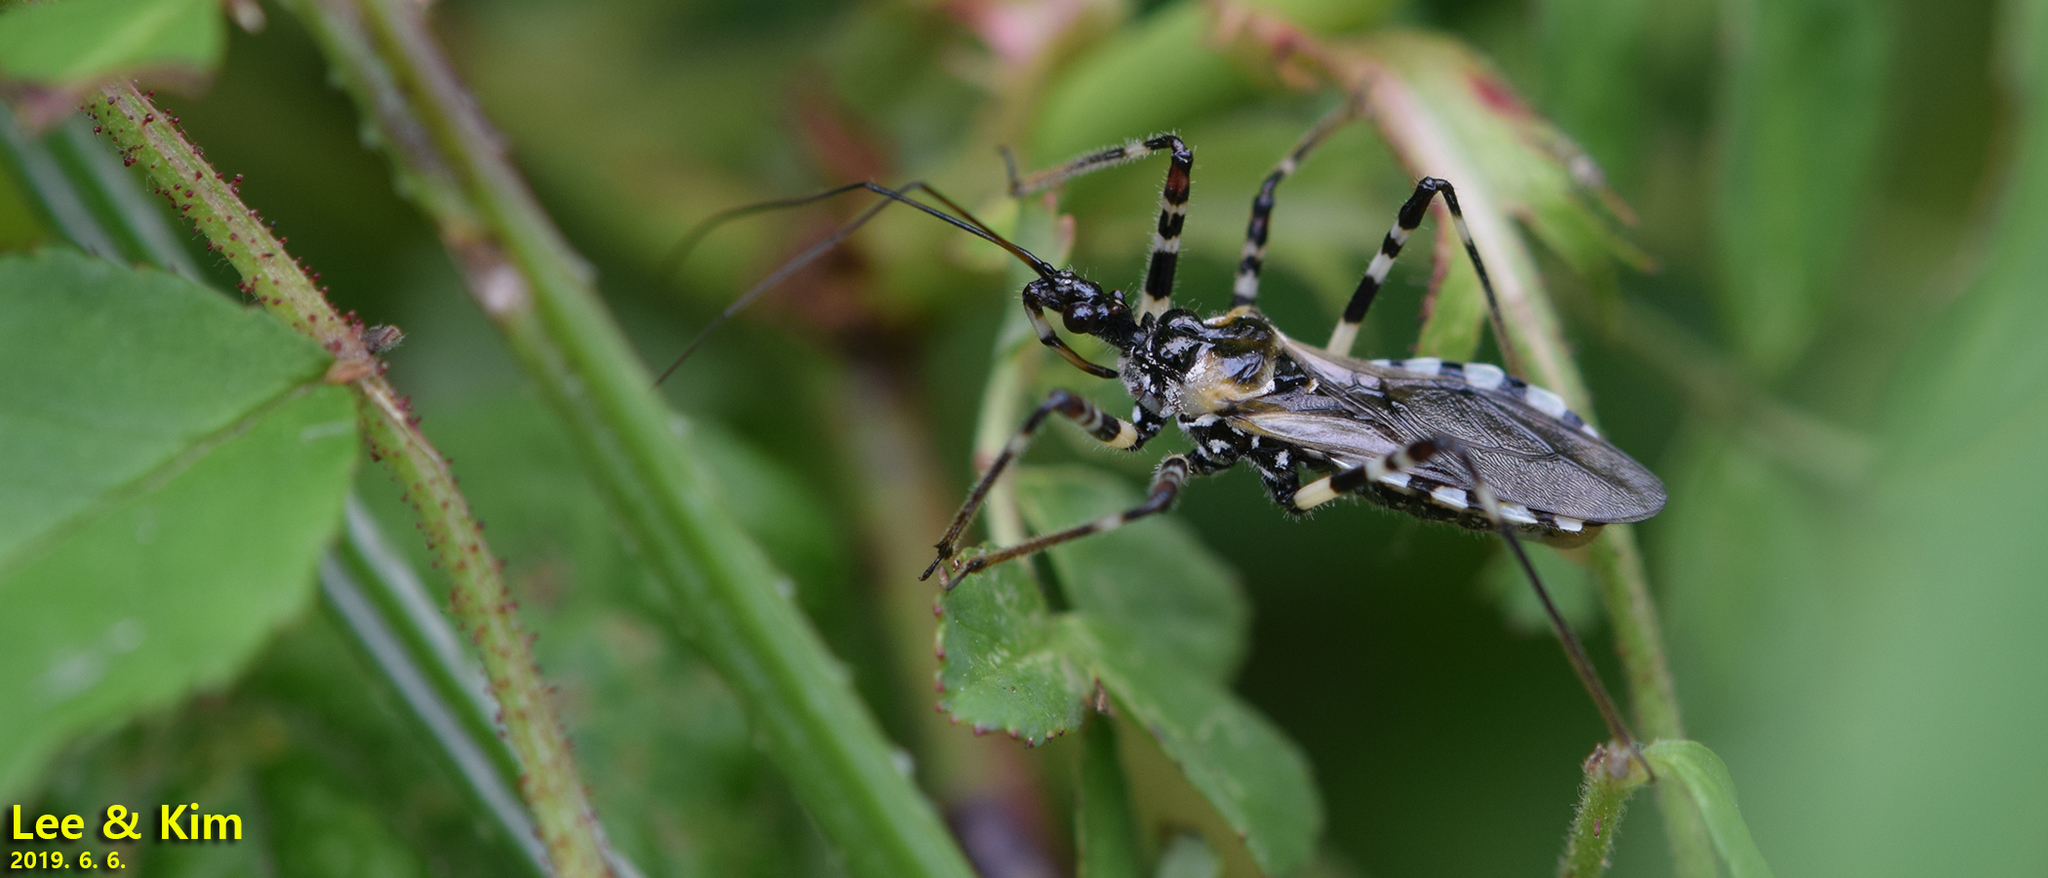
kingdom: Animalia
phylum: Arthropoda
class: Insecta
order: Hemiptera
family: Reduviidae
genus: Sphedanolestes
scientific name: Sphedanolestes impressicollis
